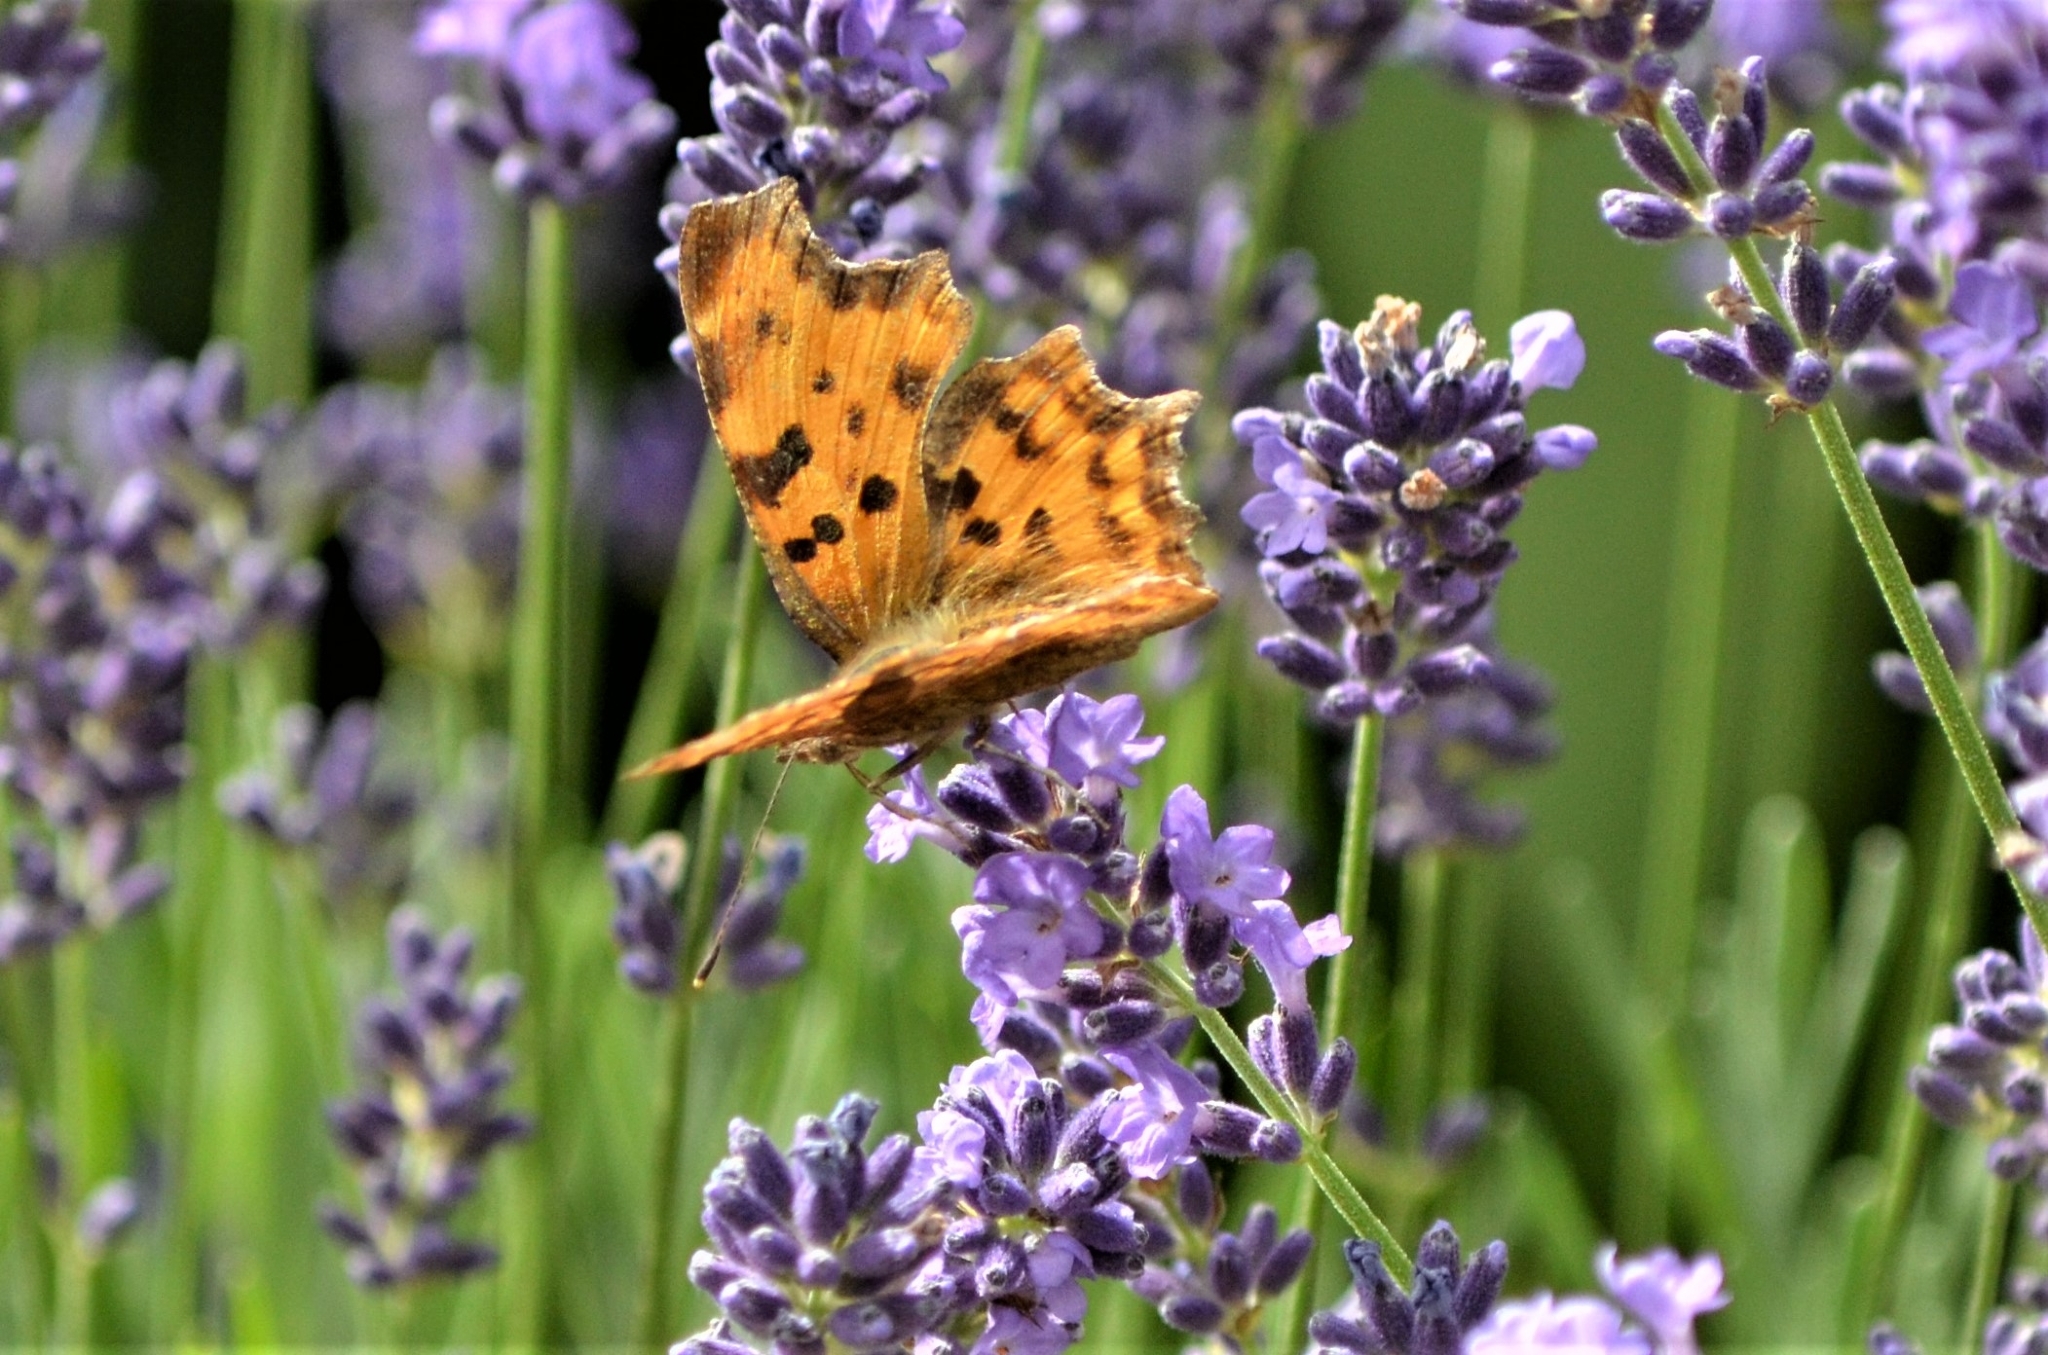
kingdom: Animalia
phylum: Arthropoda
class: Insecta
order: Lepidoptera
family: Nymphalidae
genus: Polygonia
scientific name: Polygonia c-album
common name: Comma
